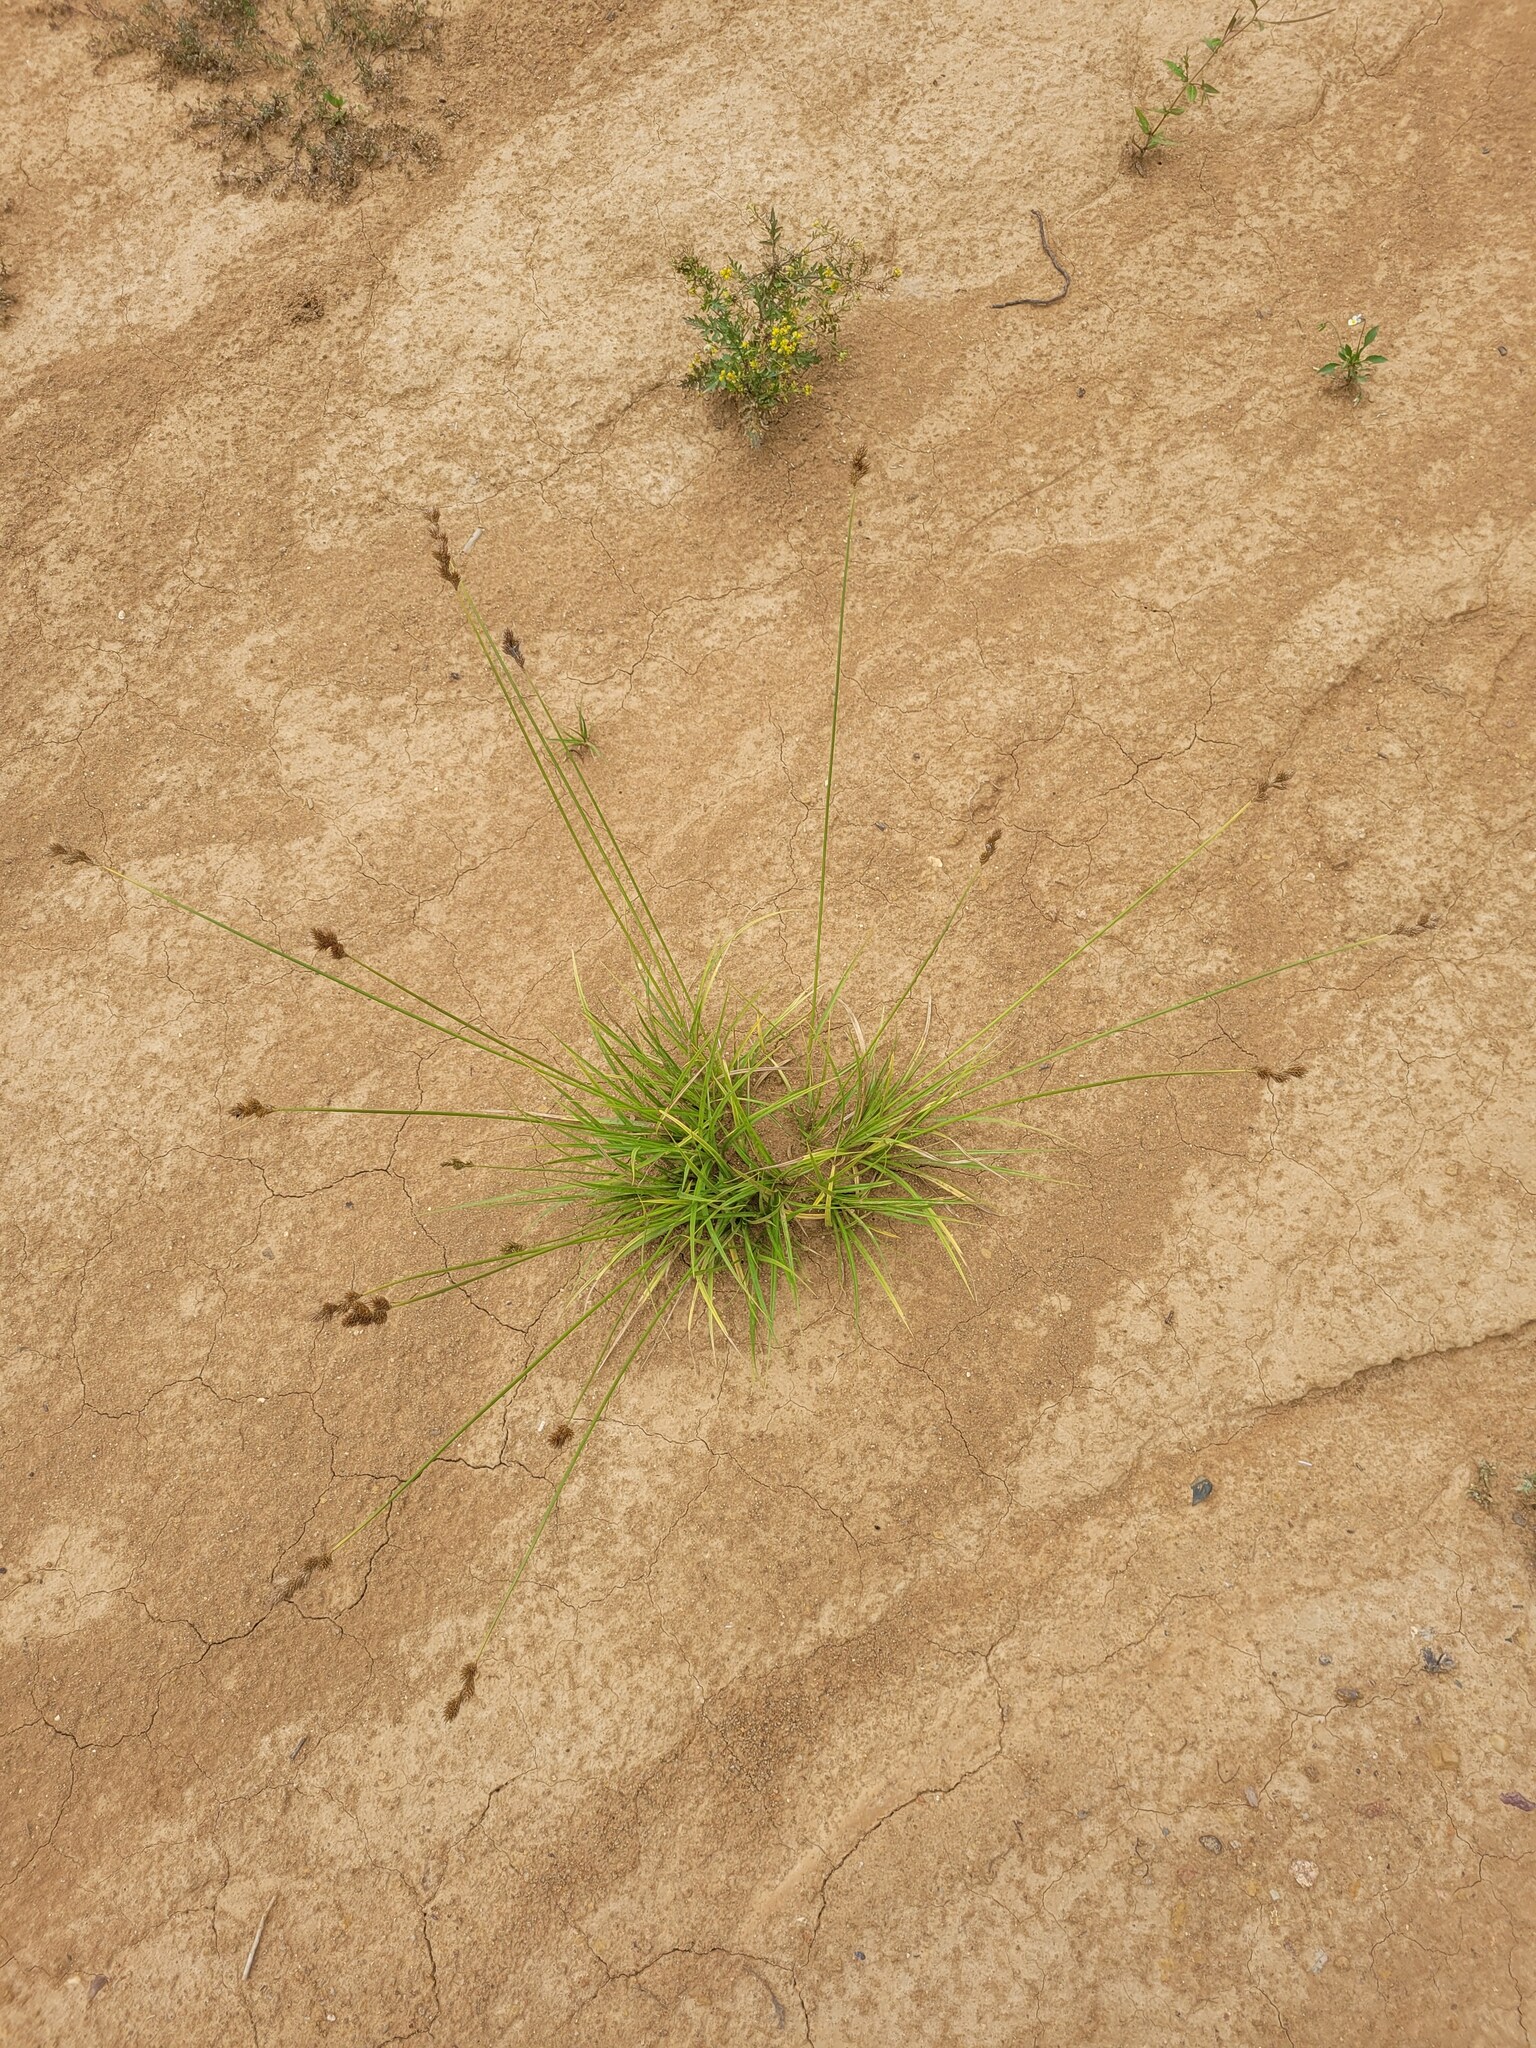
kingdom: Plantae
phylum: Tracheophyta
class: Liliopsida
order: Poales
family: Cyperaceae
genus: Carex
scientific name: Carex leporina
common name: Oval sedge
